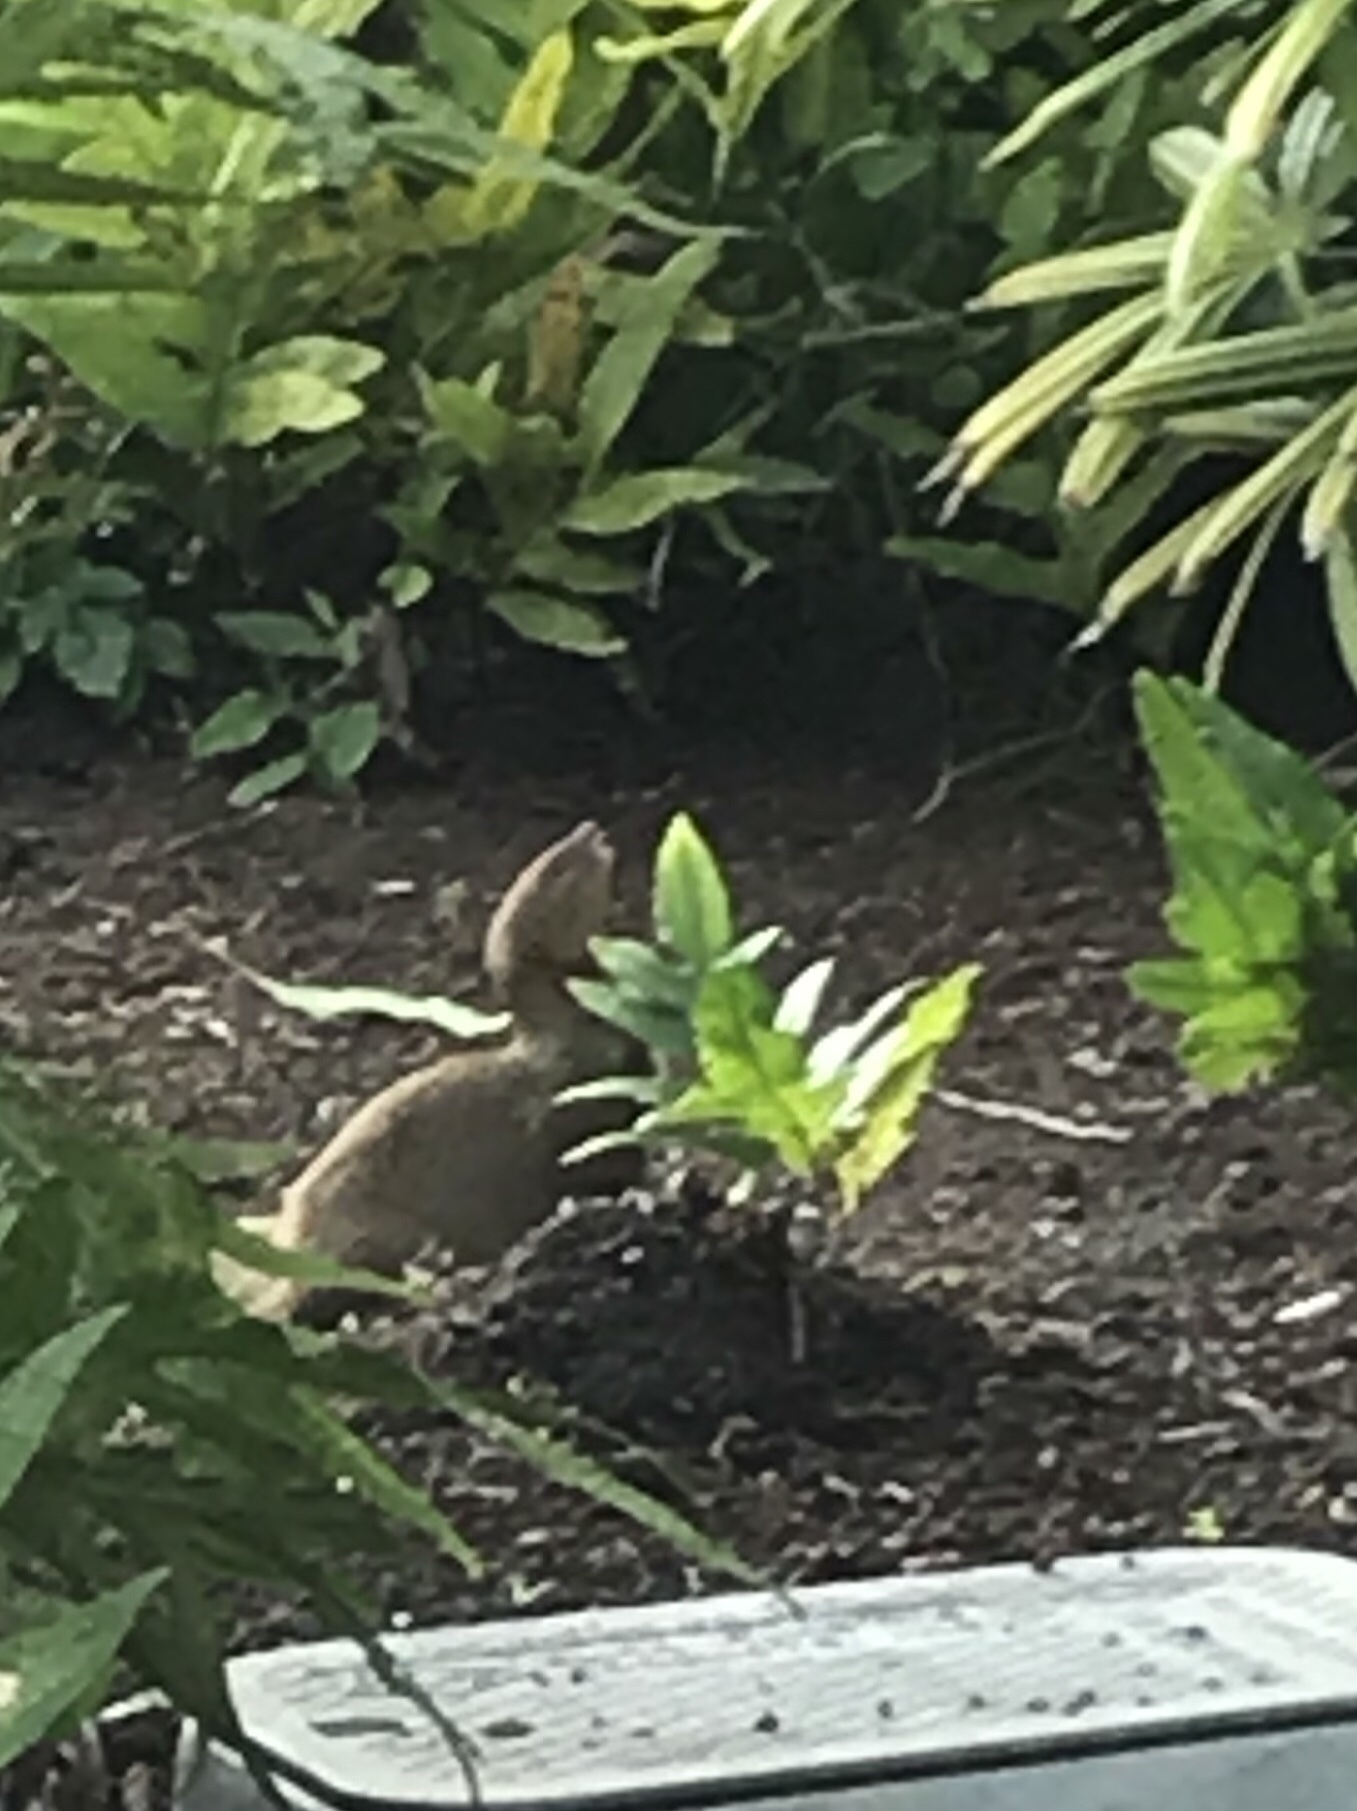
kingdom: Animalia
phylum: Chordata
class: Mammalia
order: Carnivora
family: Herpestidae
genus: Herpestes
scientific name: Herpestes javanicus
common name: Small asian mongoose
